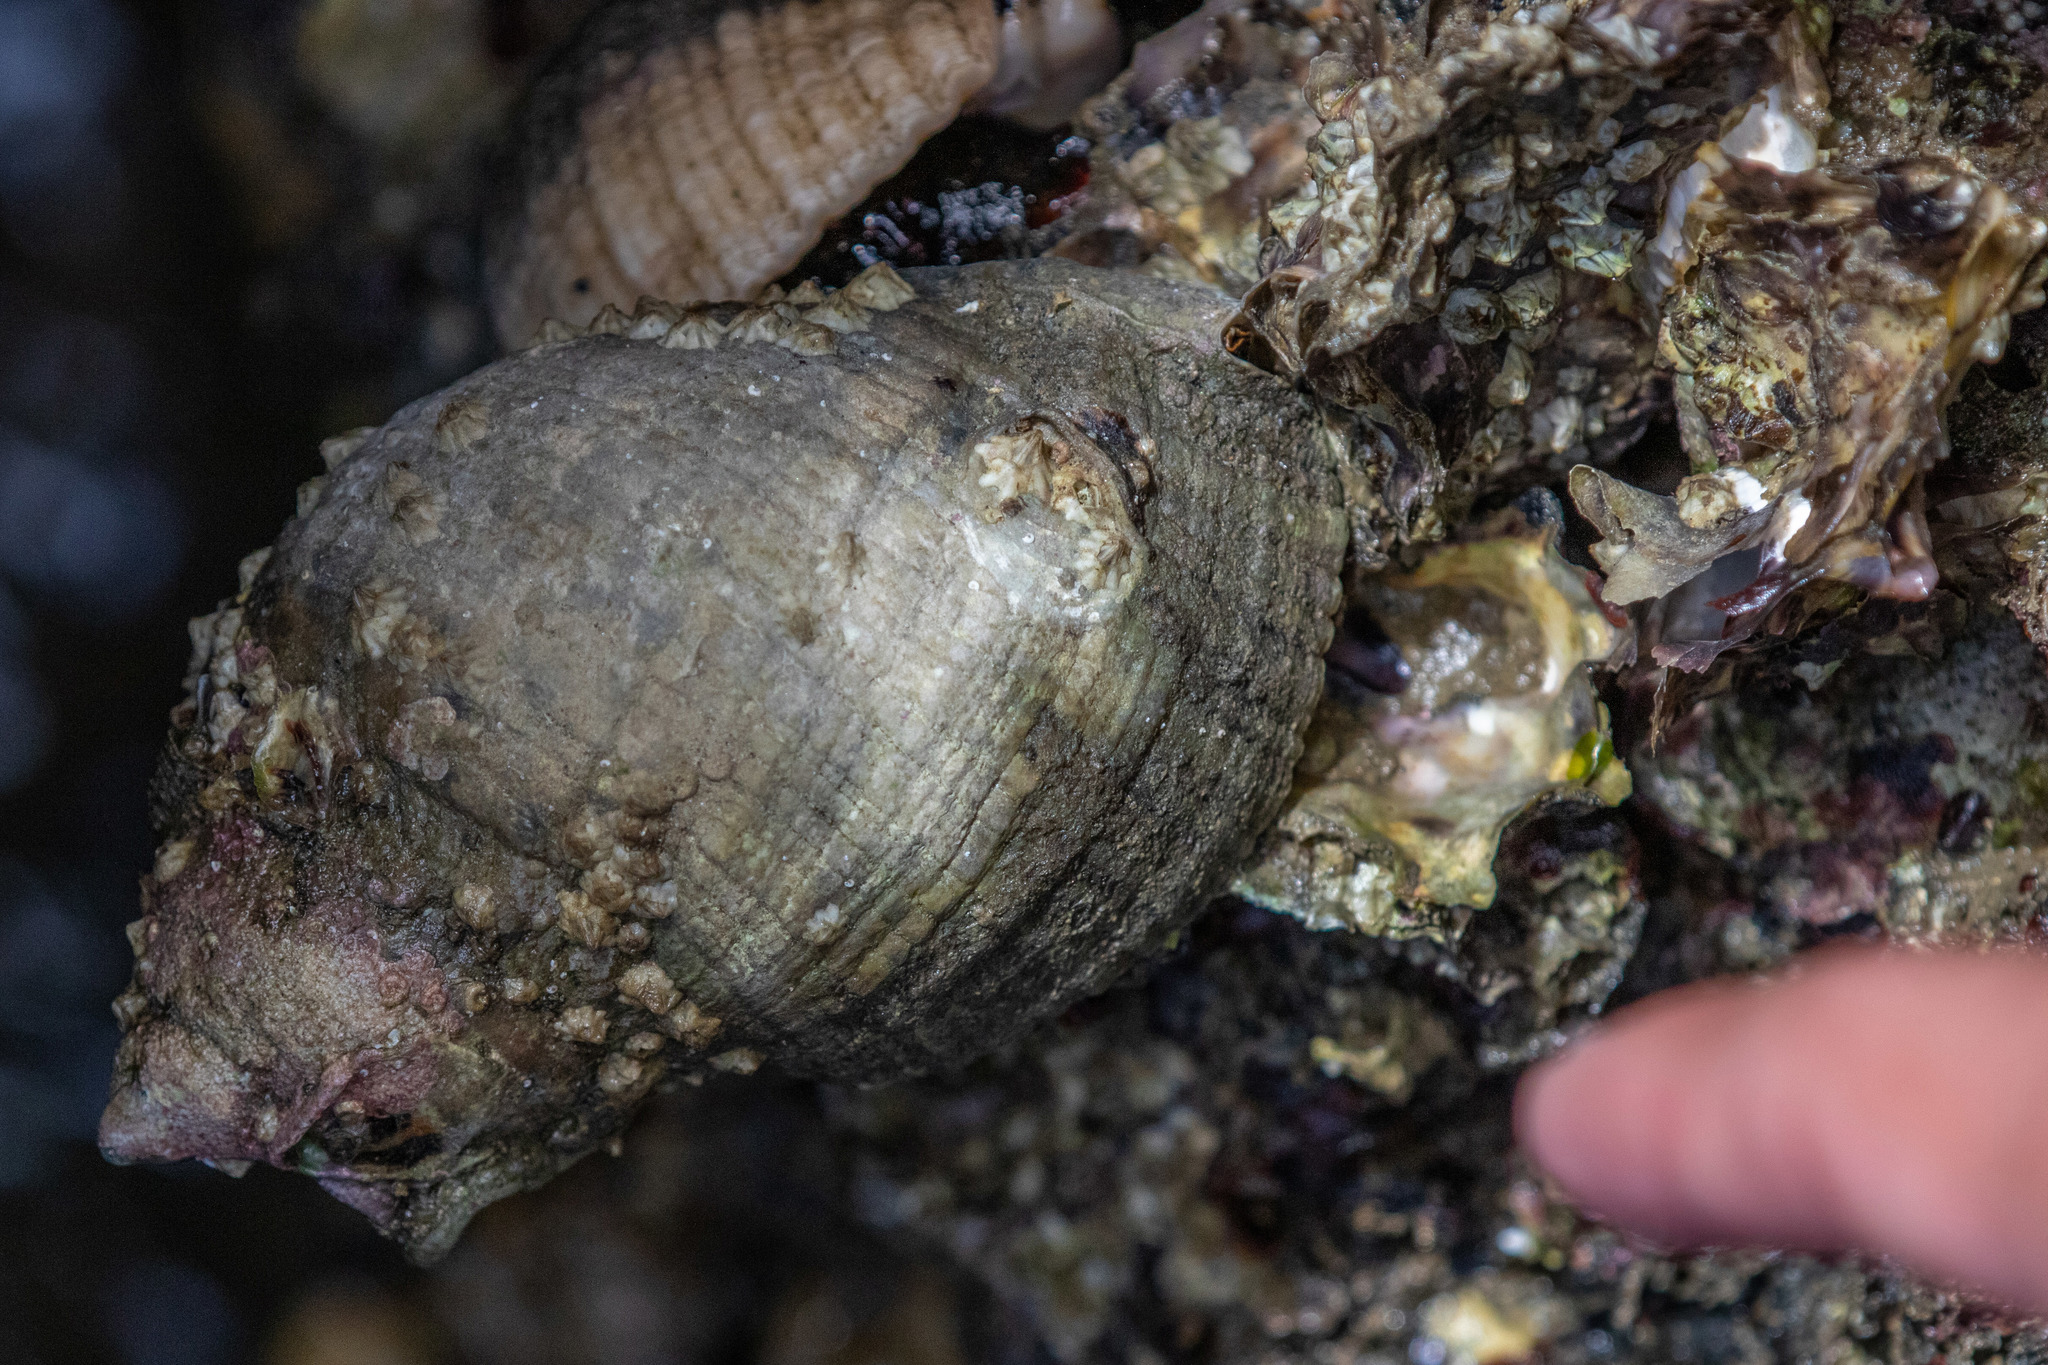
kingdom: Animalia
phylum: Mollusca
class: Gastropoda
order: Neogastropoda
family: Muricidae
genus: Dicathais
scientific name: Dicathais orbita
